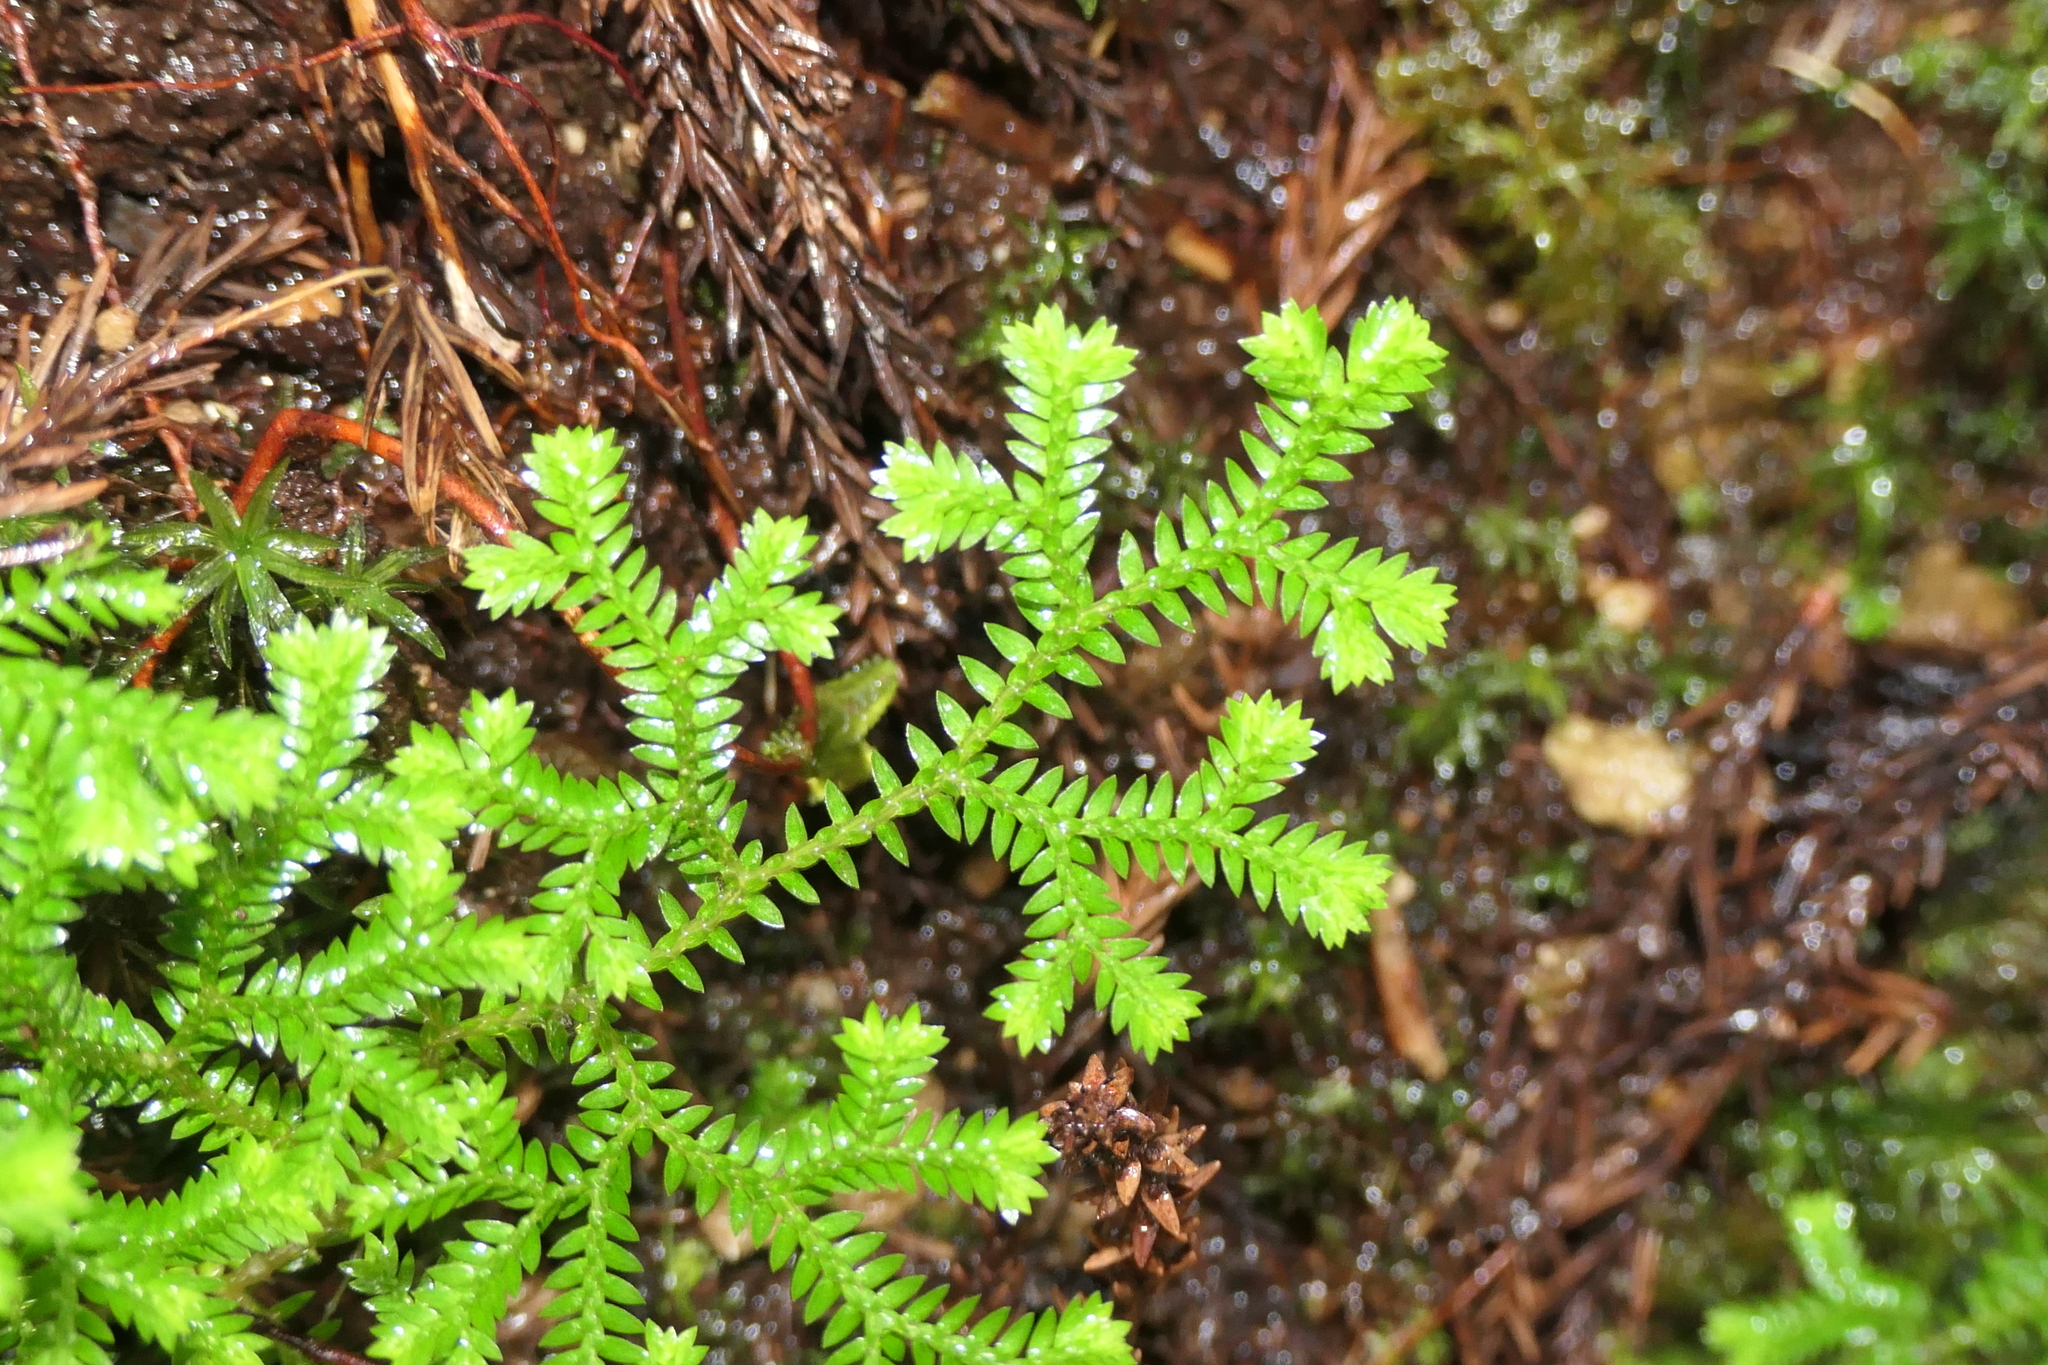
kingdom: Plantae
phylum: Tracheophyta
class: Lycopodiopsida
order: Selaginellales
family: Selaginellaceae
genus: Selaginella
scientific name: Selaginella kraussiana
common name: Krauss' spikemoss
